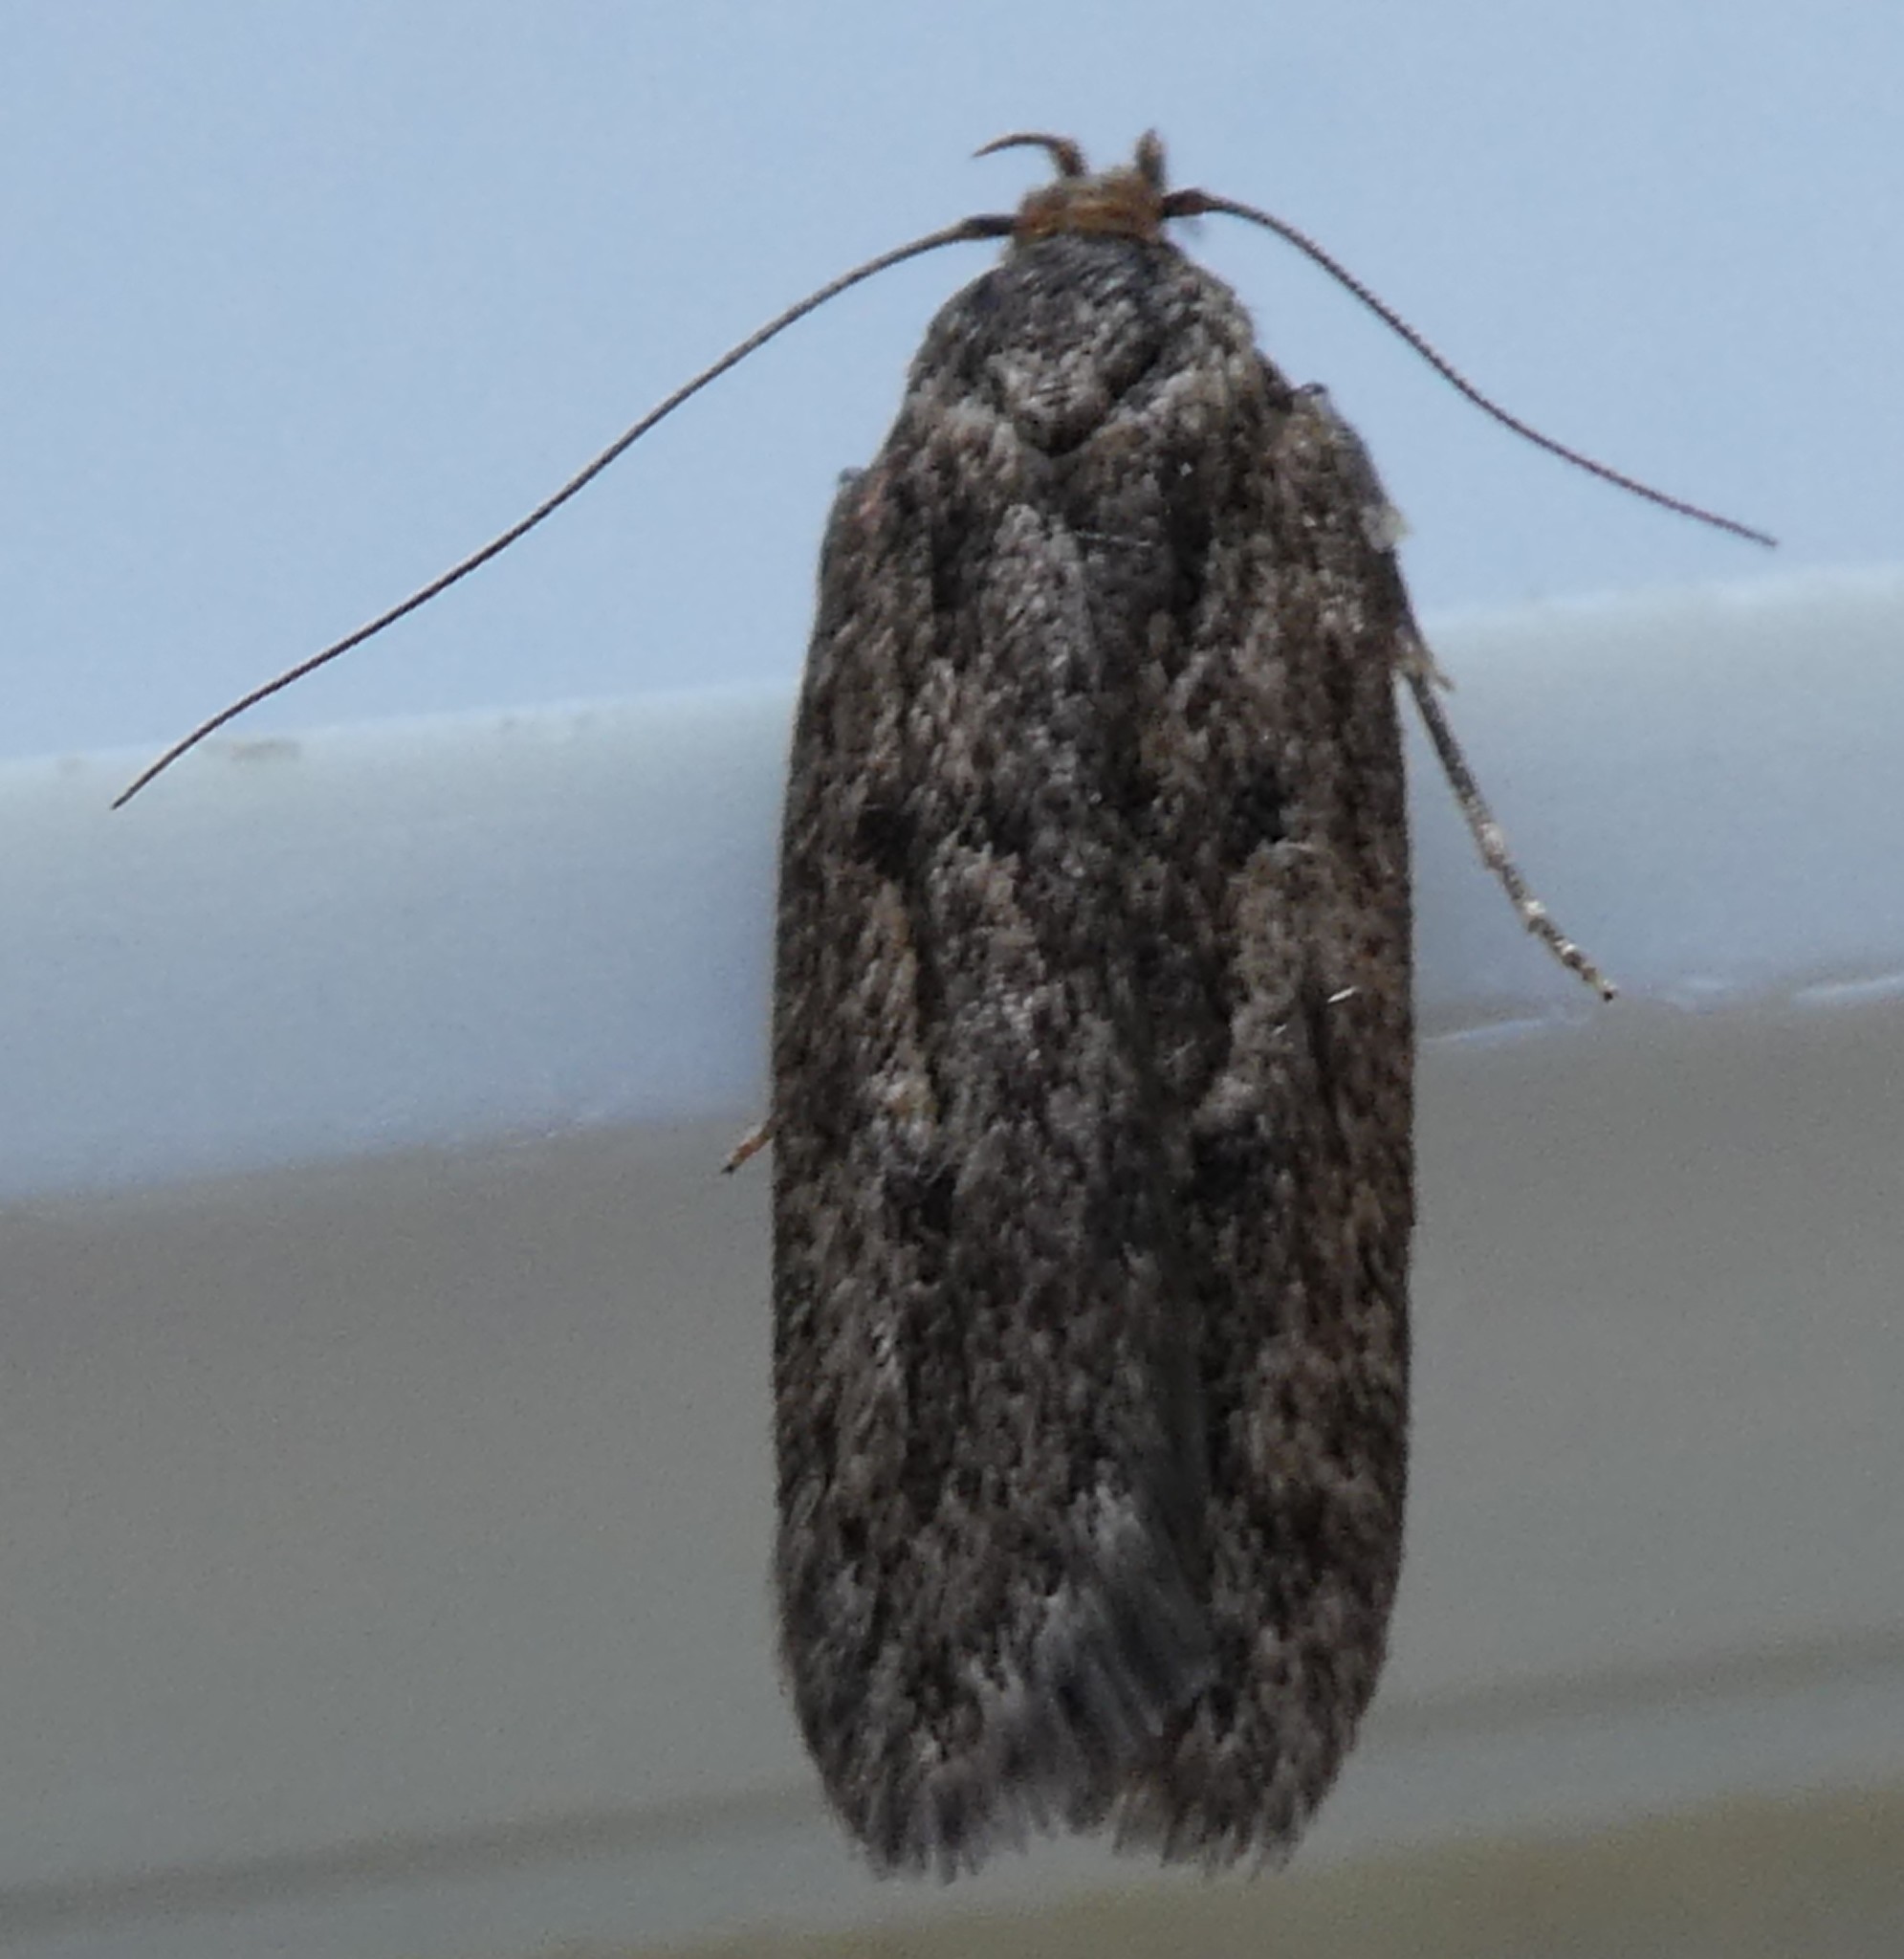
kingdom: Animalia
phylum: Arthropoda
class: Insecta
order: Lepidoptera
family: Oecophoridae
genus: Hofmannophila
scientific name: Hofmannophila pseudospretella
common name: Brown house moth
